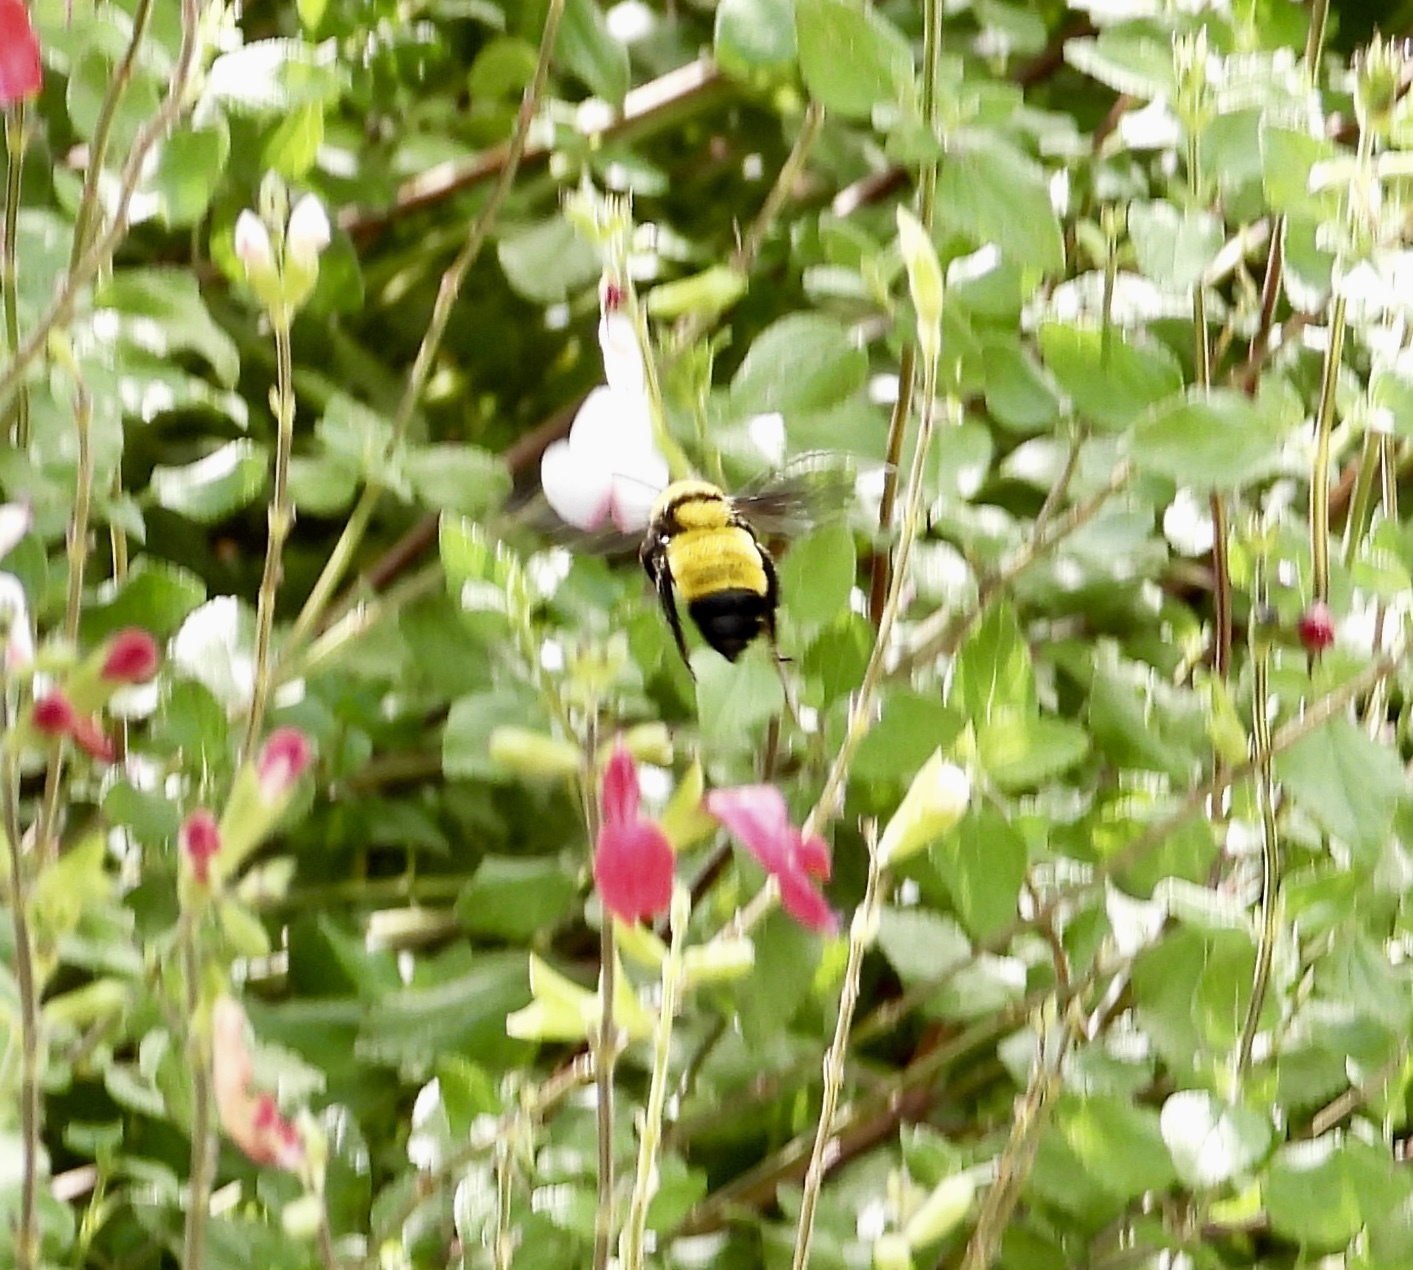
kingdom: Animalia
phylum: Arthropoda
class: Insecta
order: Hymenoptera
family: Apidae
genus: Bombus
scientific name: Bombus sonorus
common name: Sonoran bumble bee
